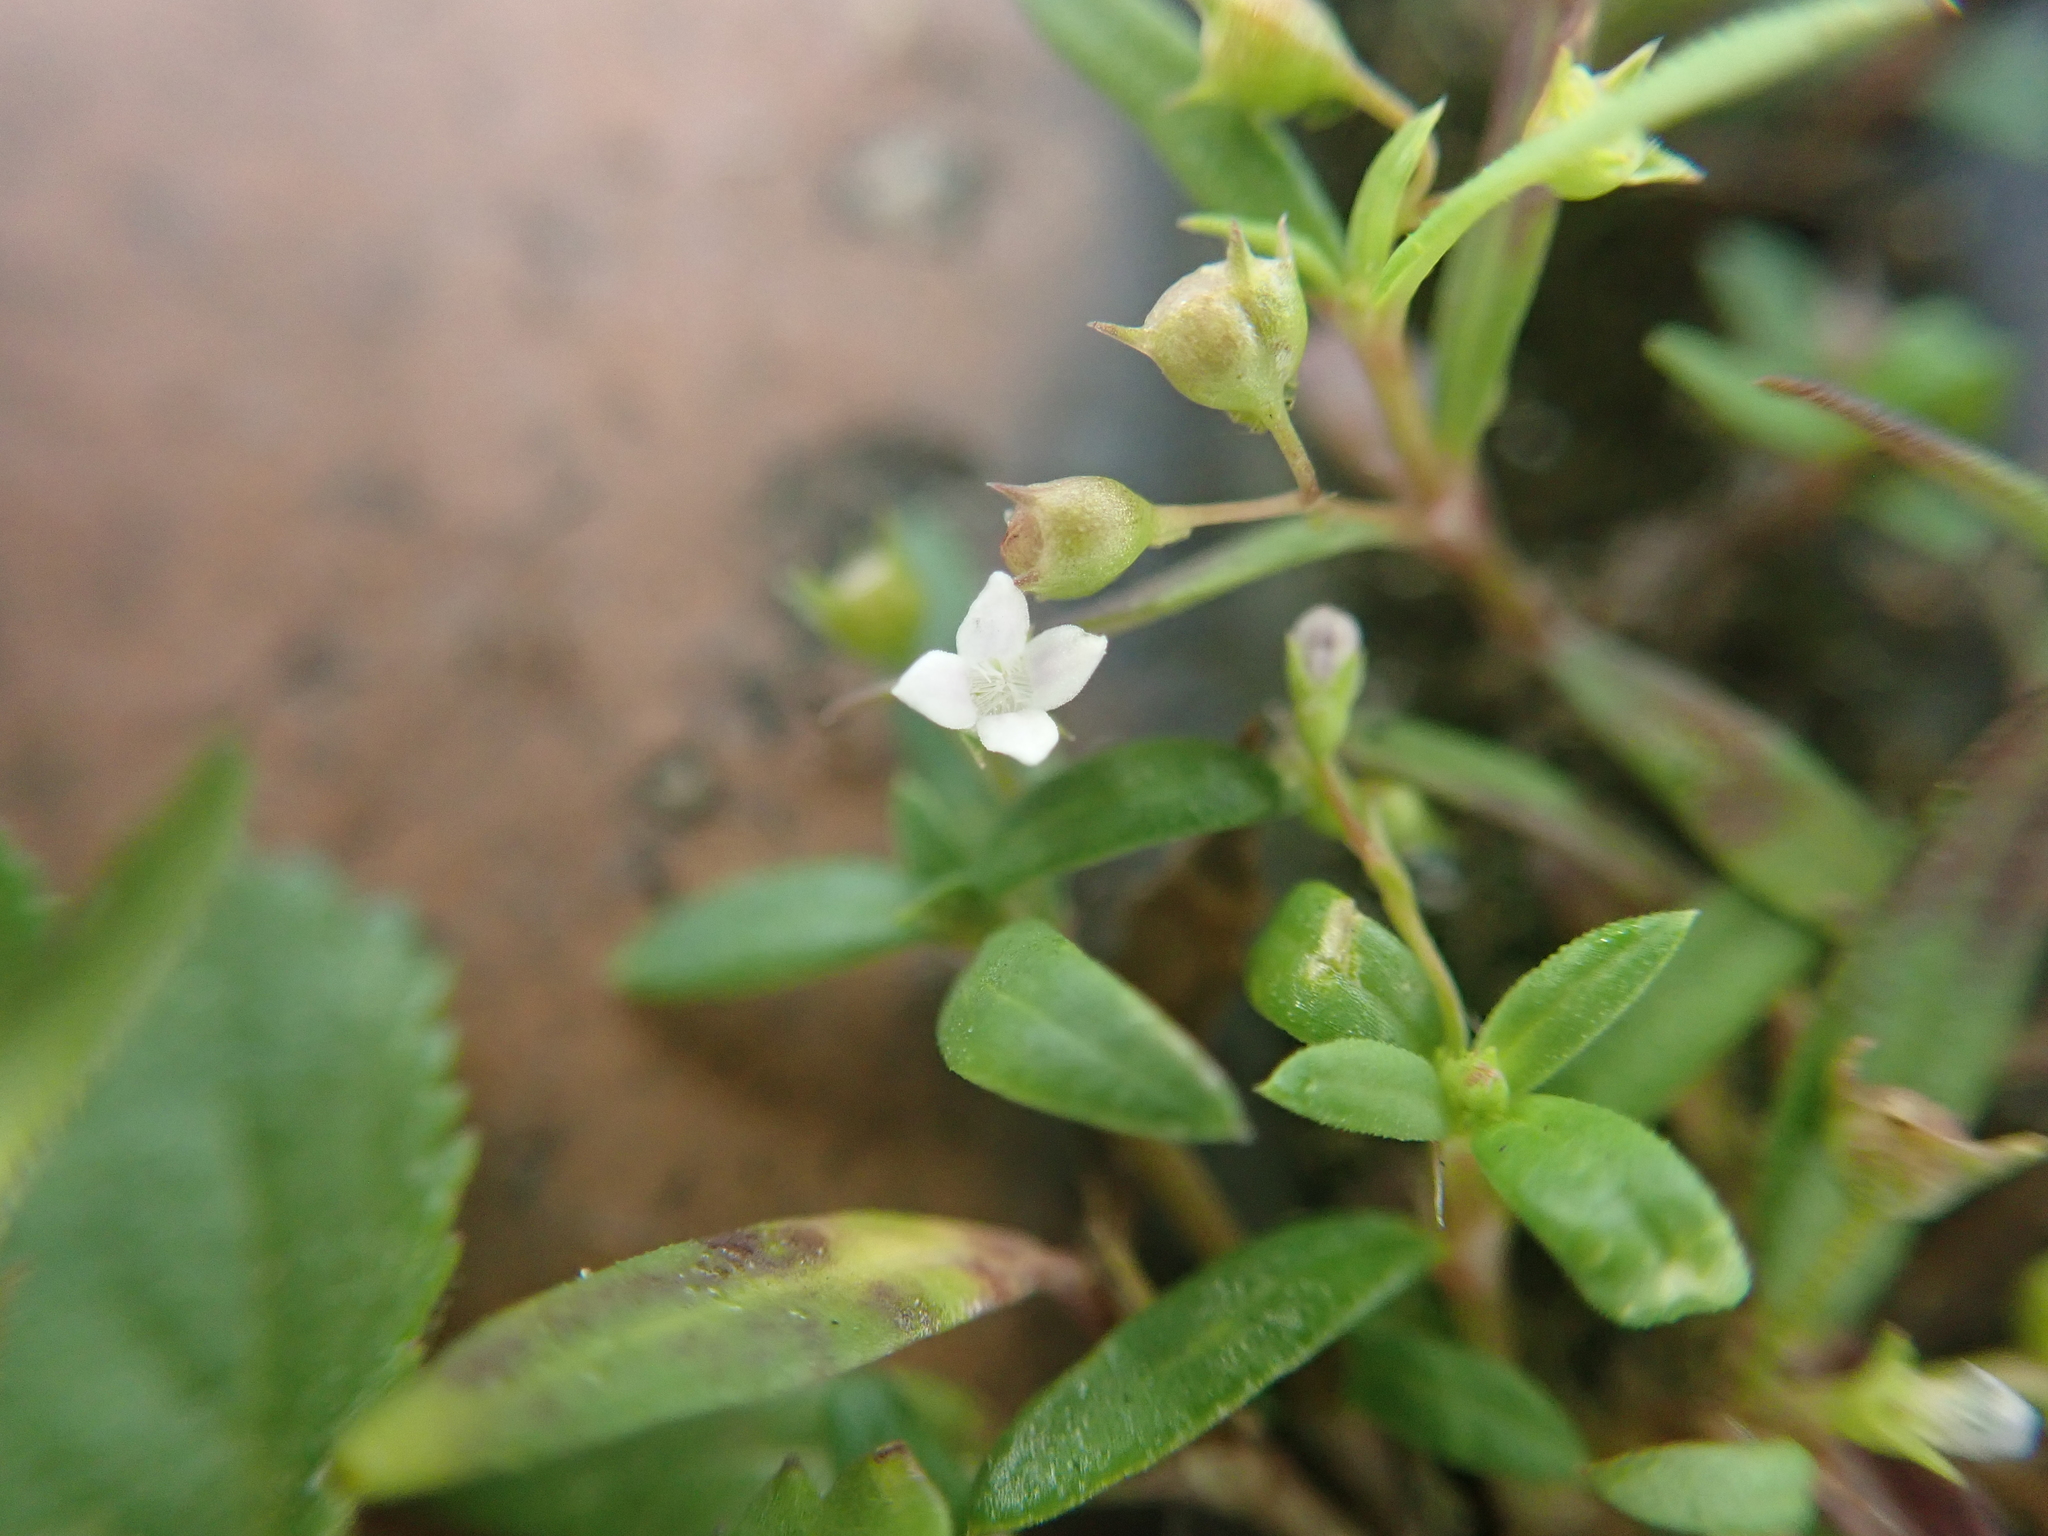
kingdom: Plantae
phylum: Tracheophyta
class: Magnoliopsida
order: Gentianales
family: Rubiaceae
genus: Oldenlandia
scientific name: Oldenlandia corymbosa
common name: Flat-top mille graines
